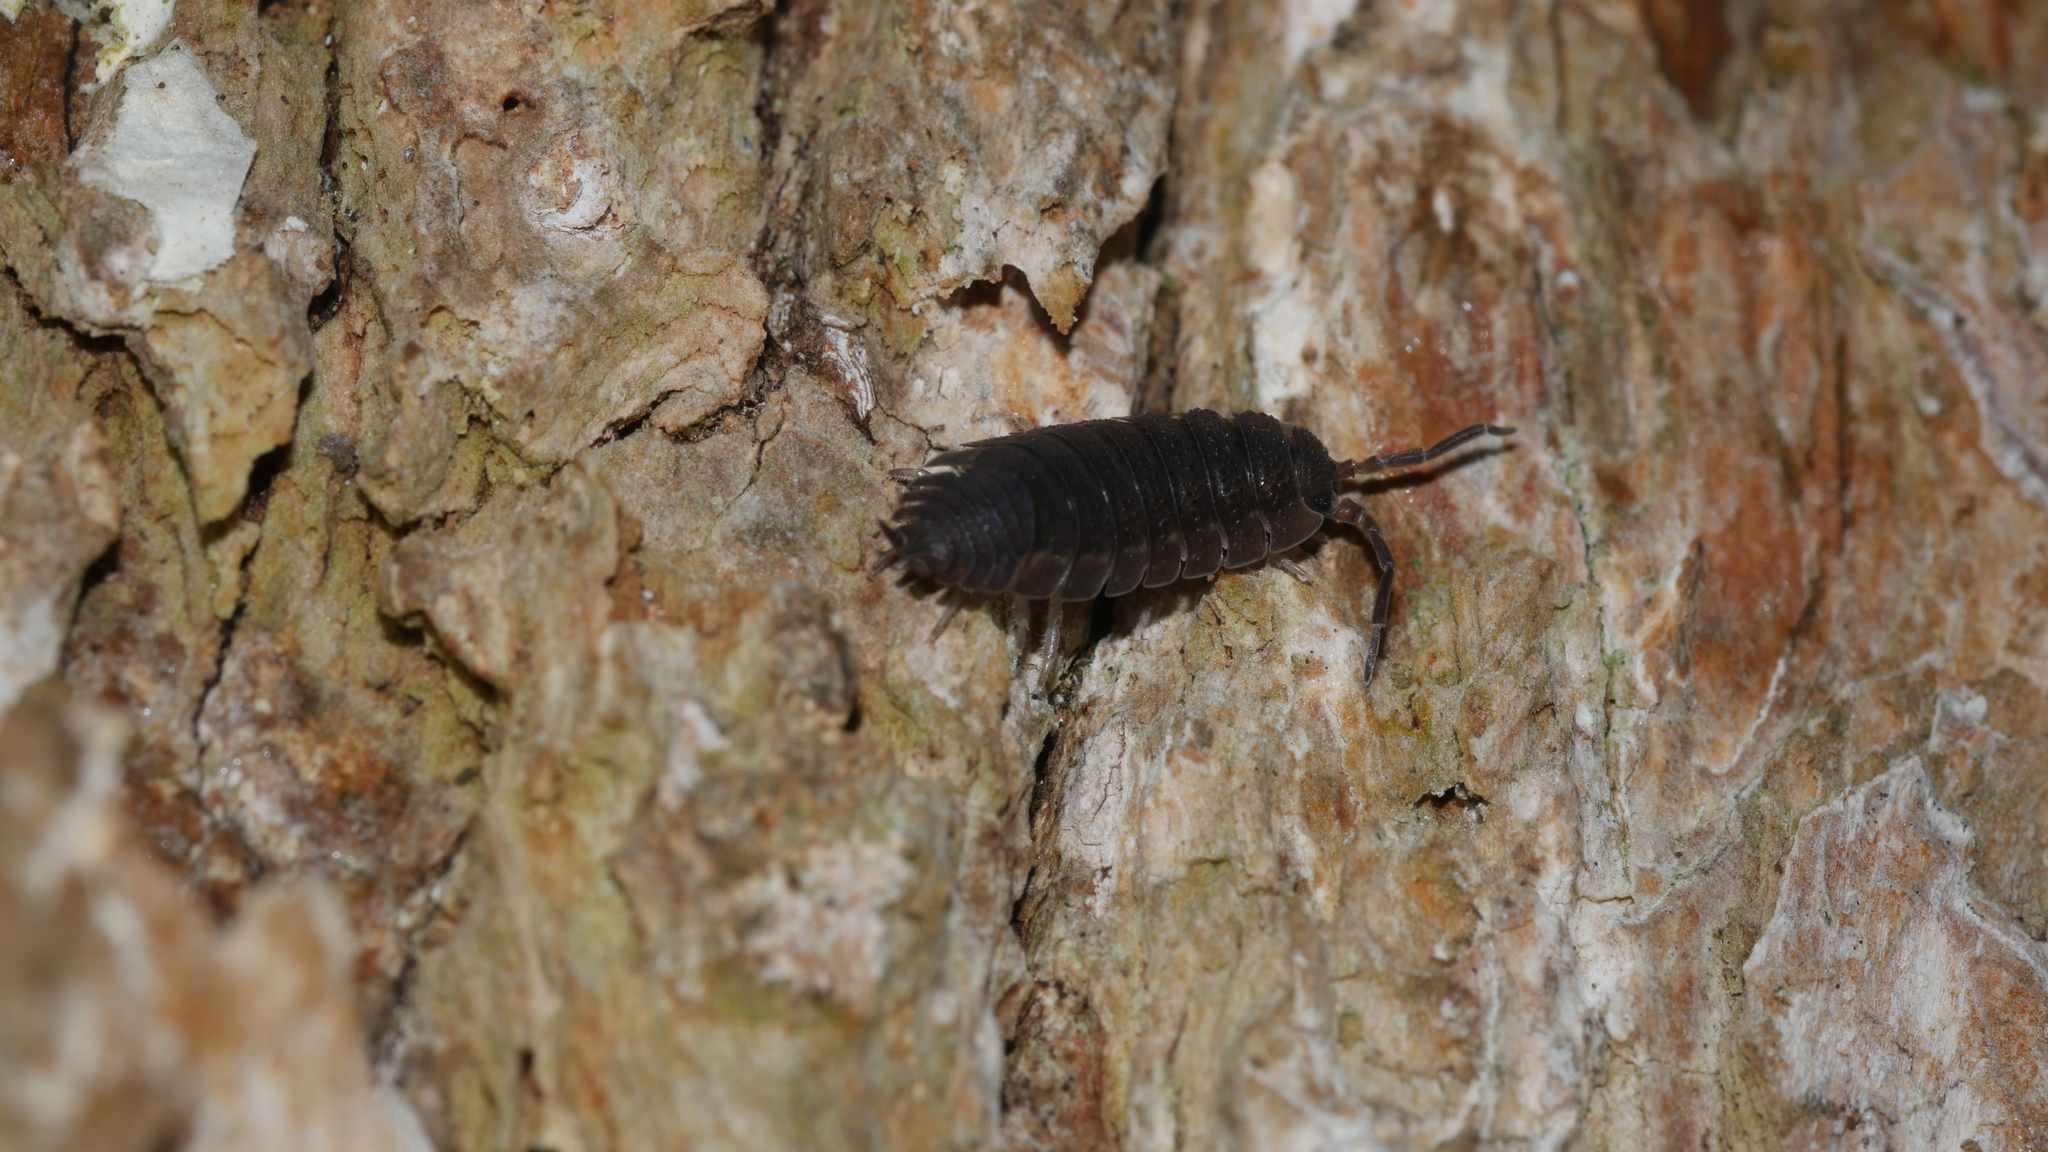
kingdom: Animalia
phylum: Arthropoda
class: Malacostraca
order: Isopoda
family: Porcellionidae
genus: Porcellio
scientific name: Porcellio scaber
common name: Common rough woodlouse
